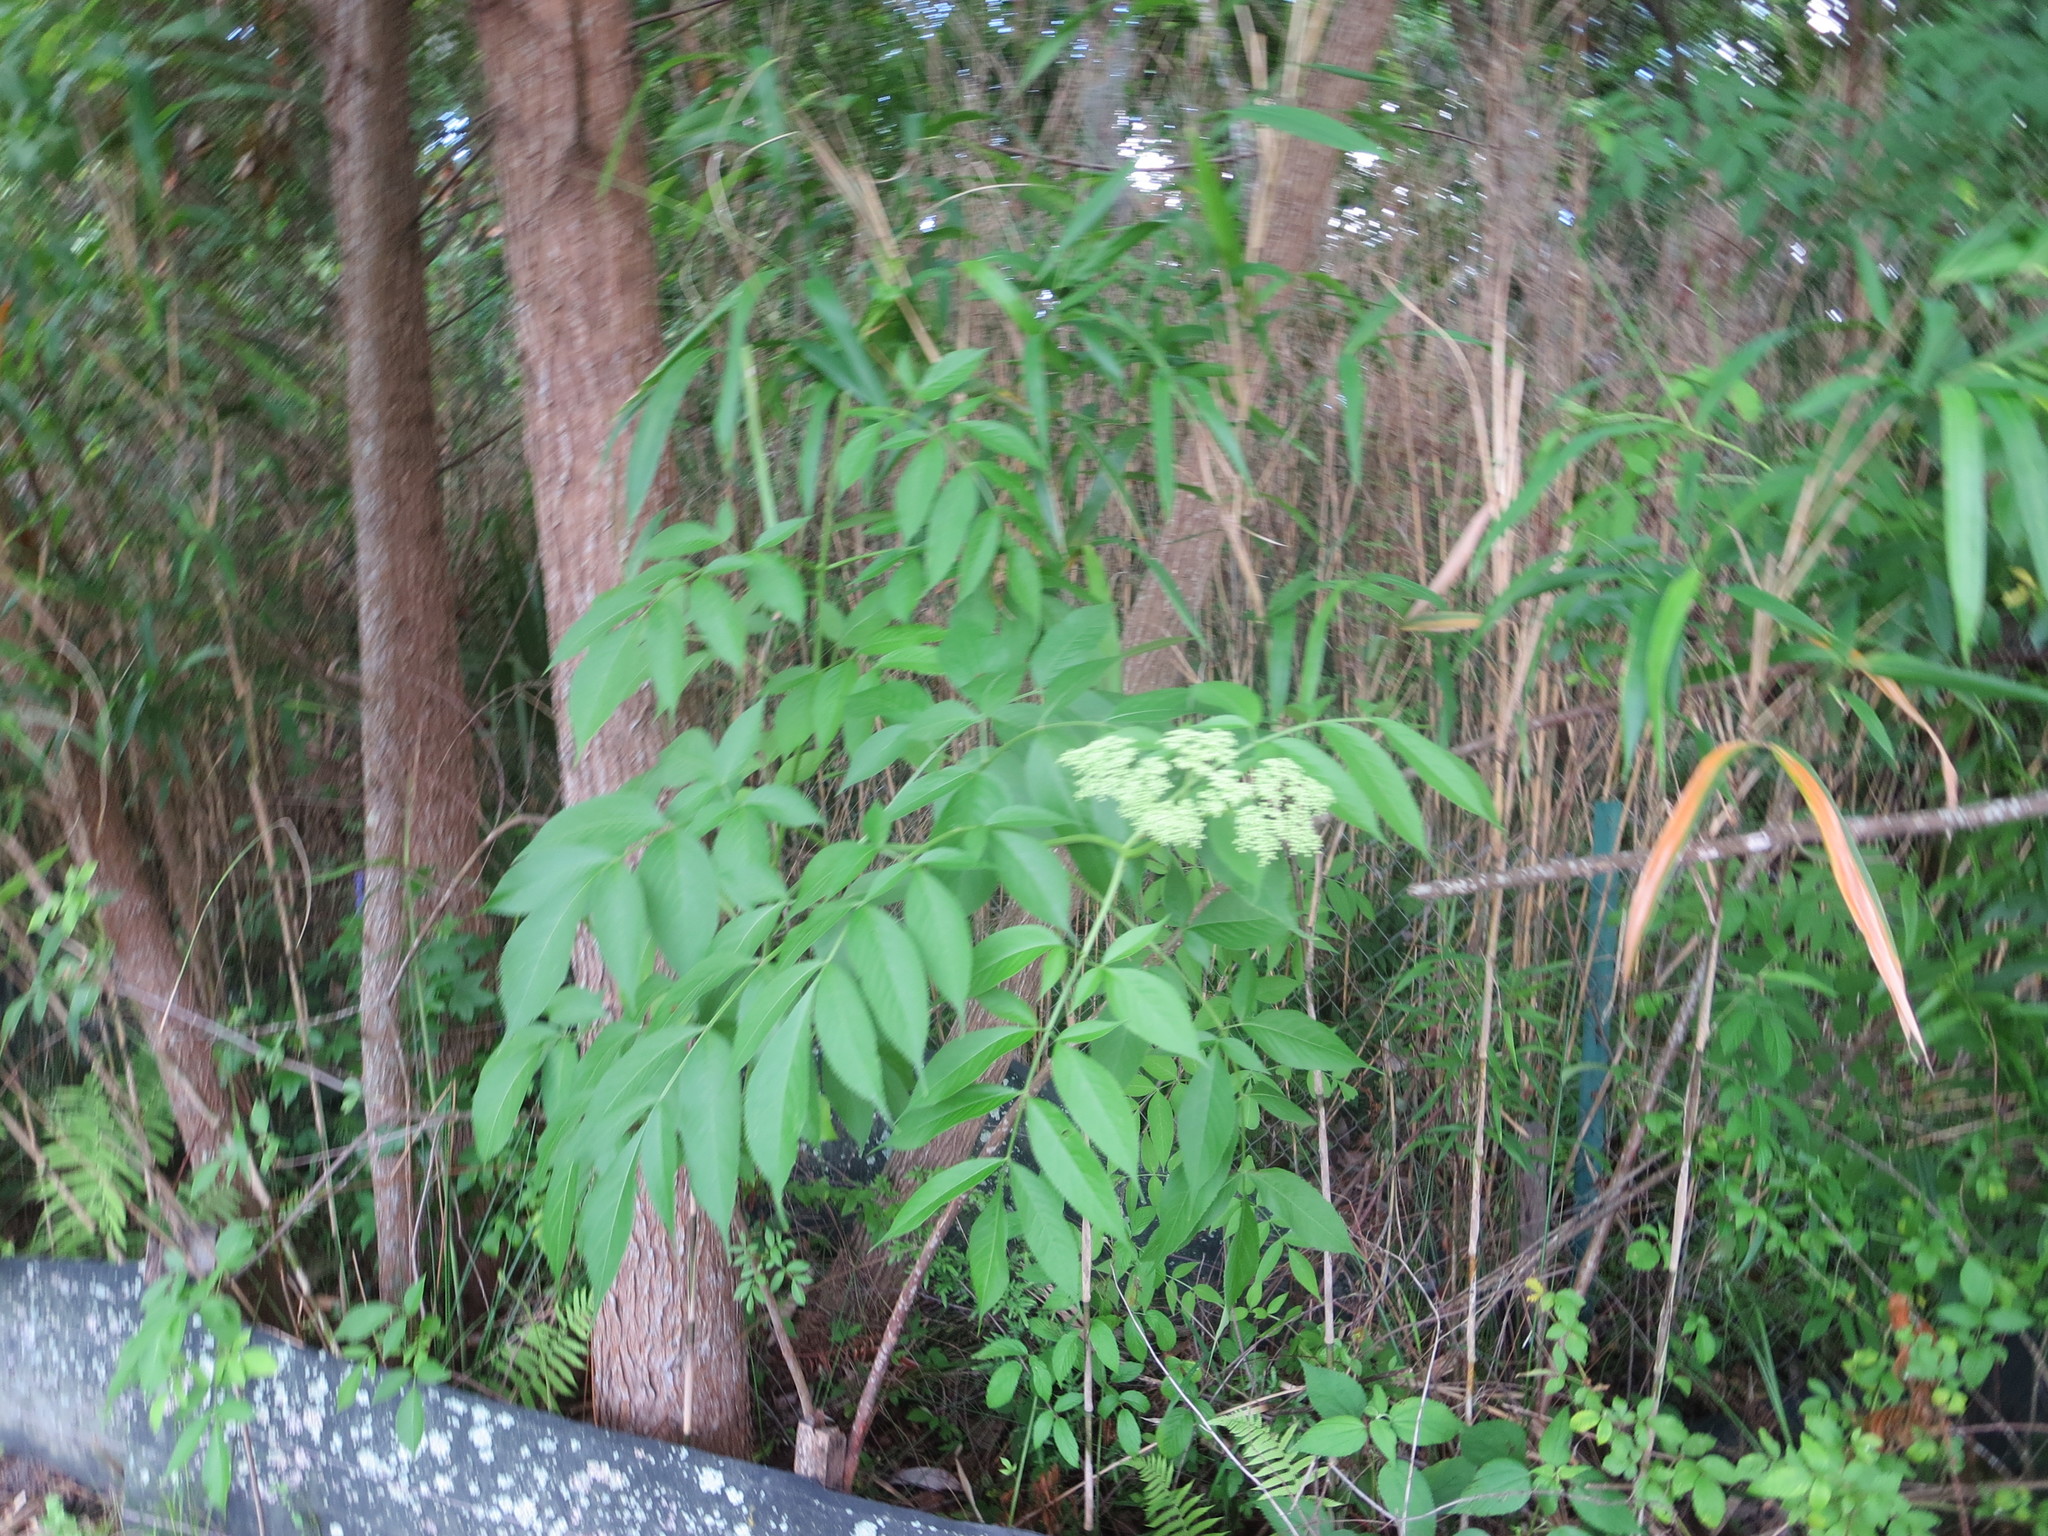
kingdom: Plantae
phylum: Tracheophyta
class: Magnoliopsida
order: Dipsacales
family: Viburnaceae
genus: Sambucus
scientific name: Sambucus canadensis
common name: American elder
